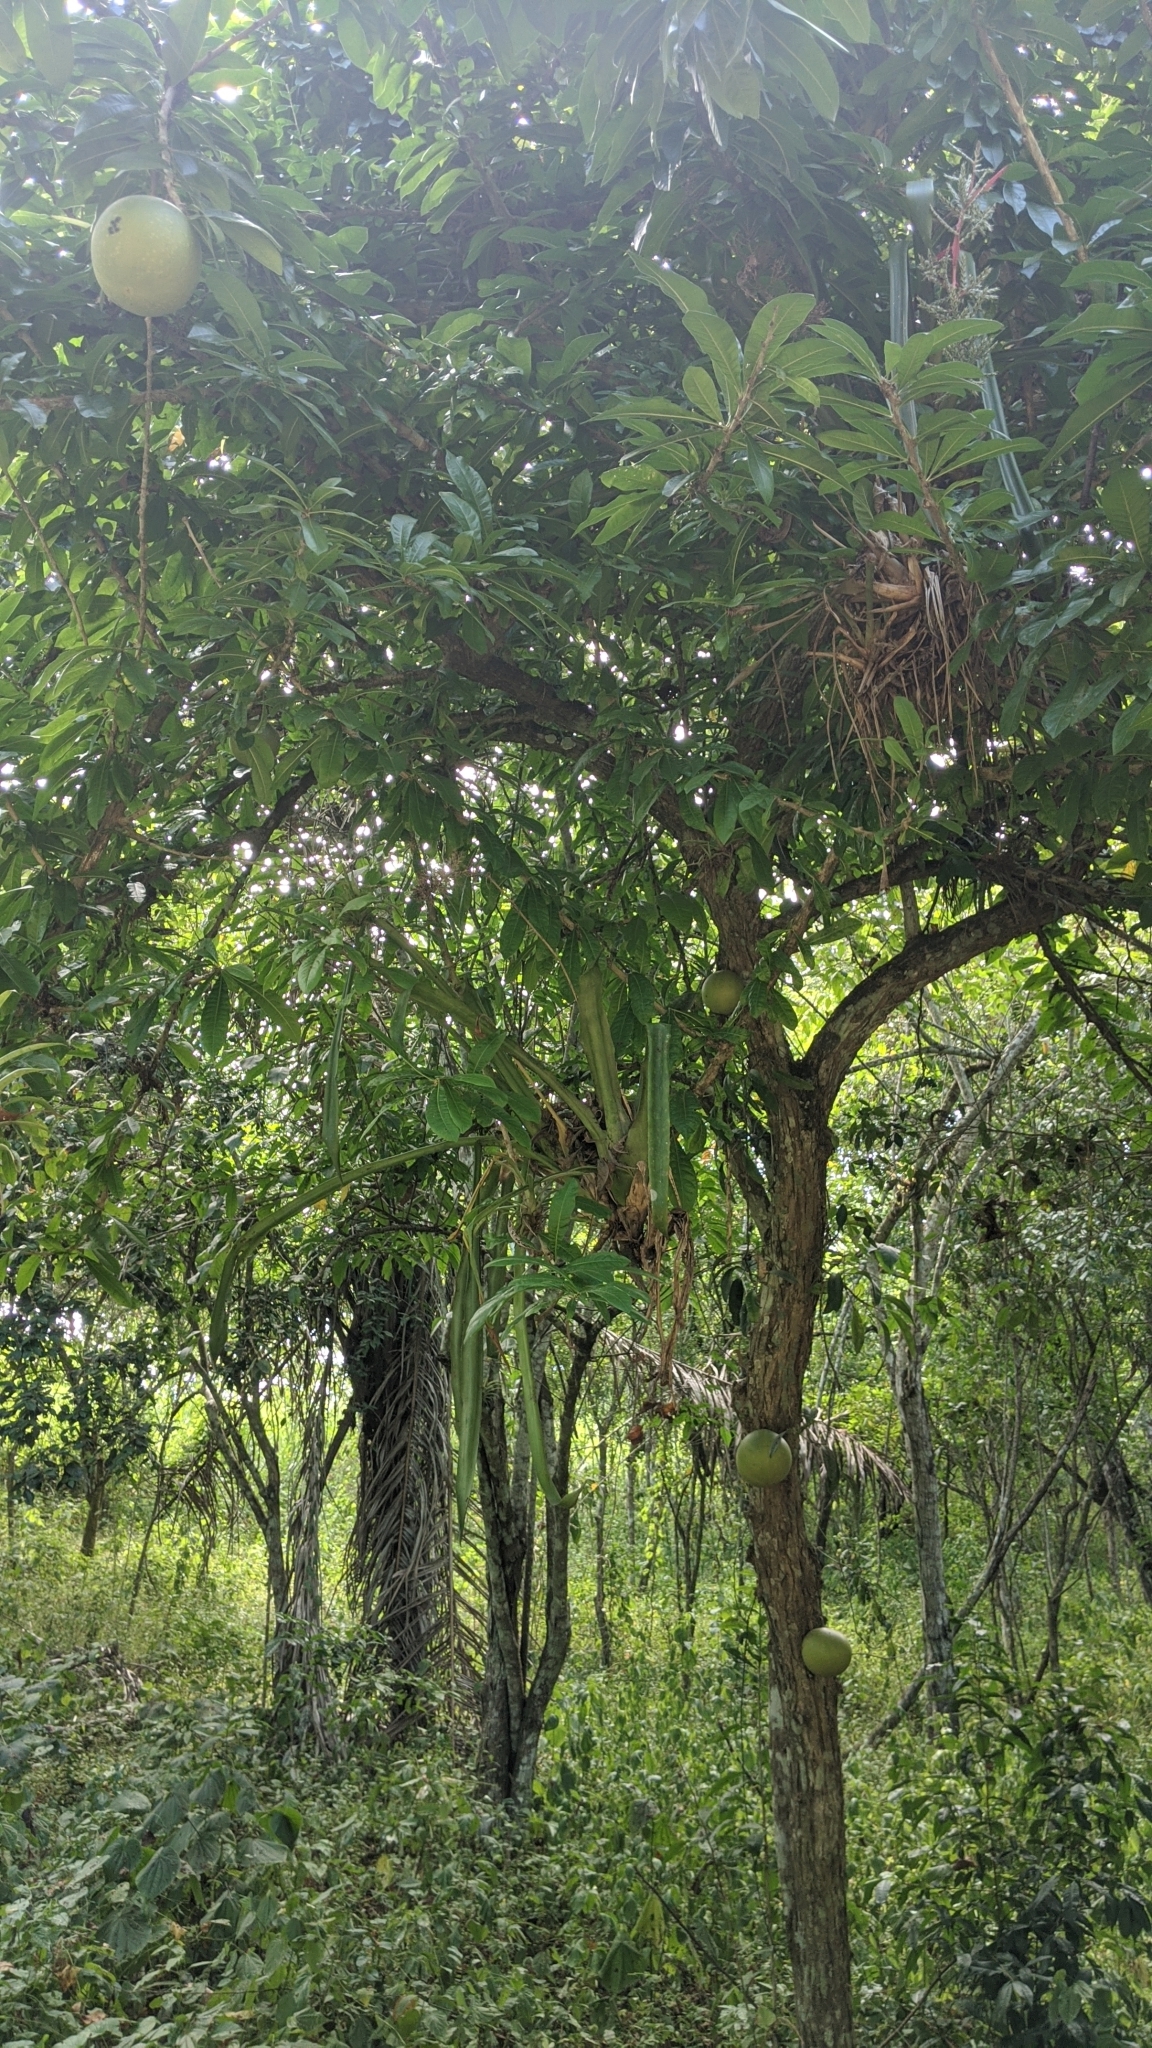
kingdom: Plantae
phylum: Tracheophyta
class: Magnoliopsida
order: Lamiales
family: Bignoniaceae
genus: Crescentia
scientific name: Crescentia cujete
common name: Calabash
